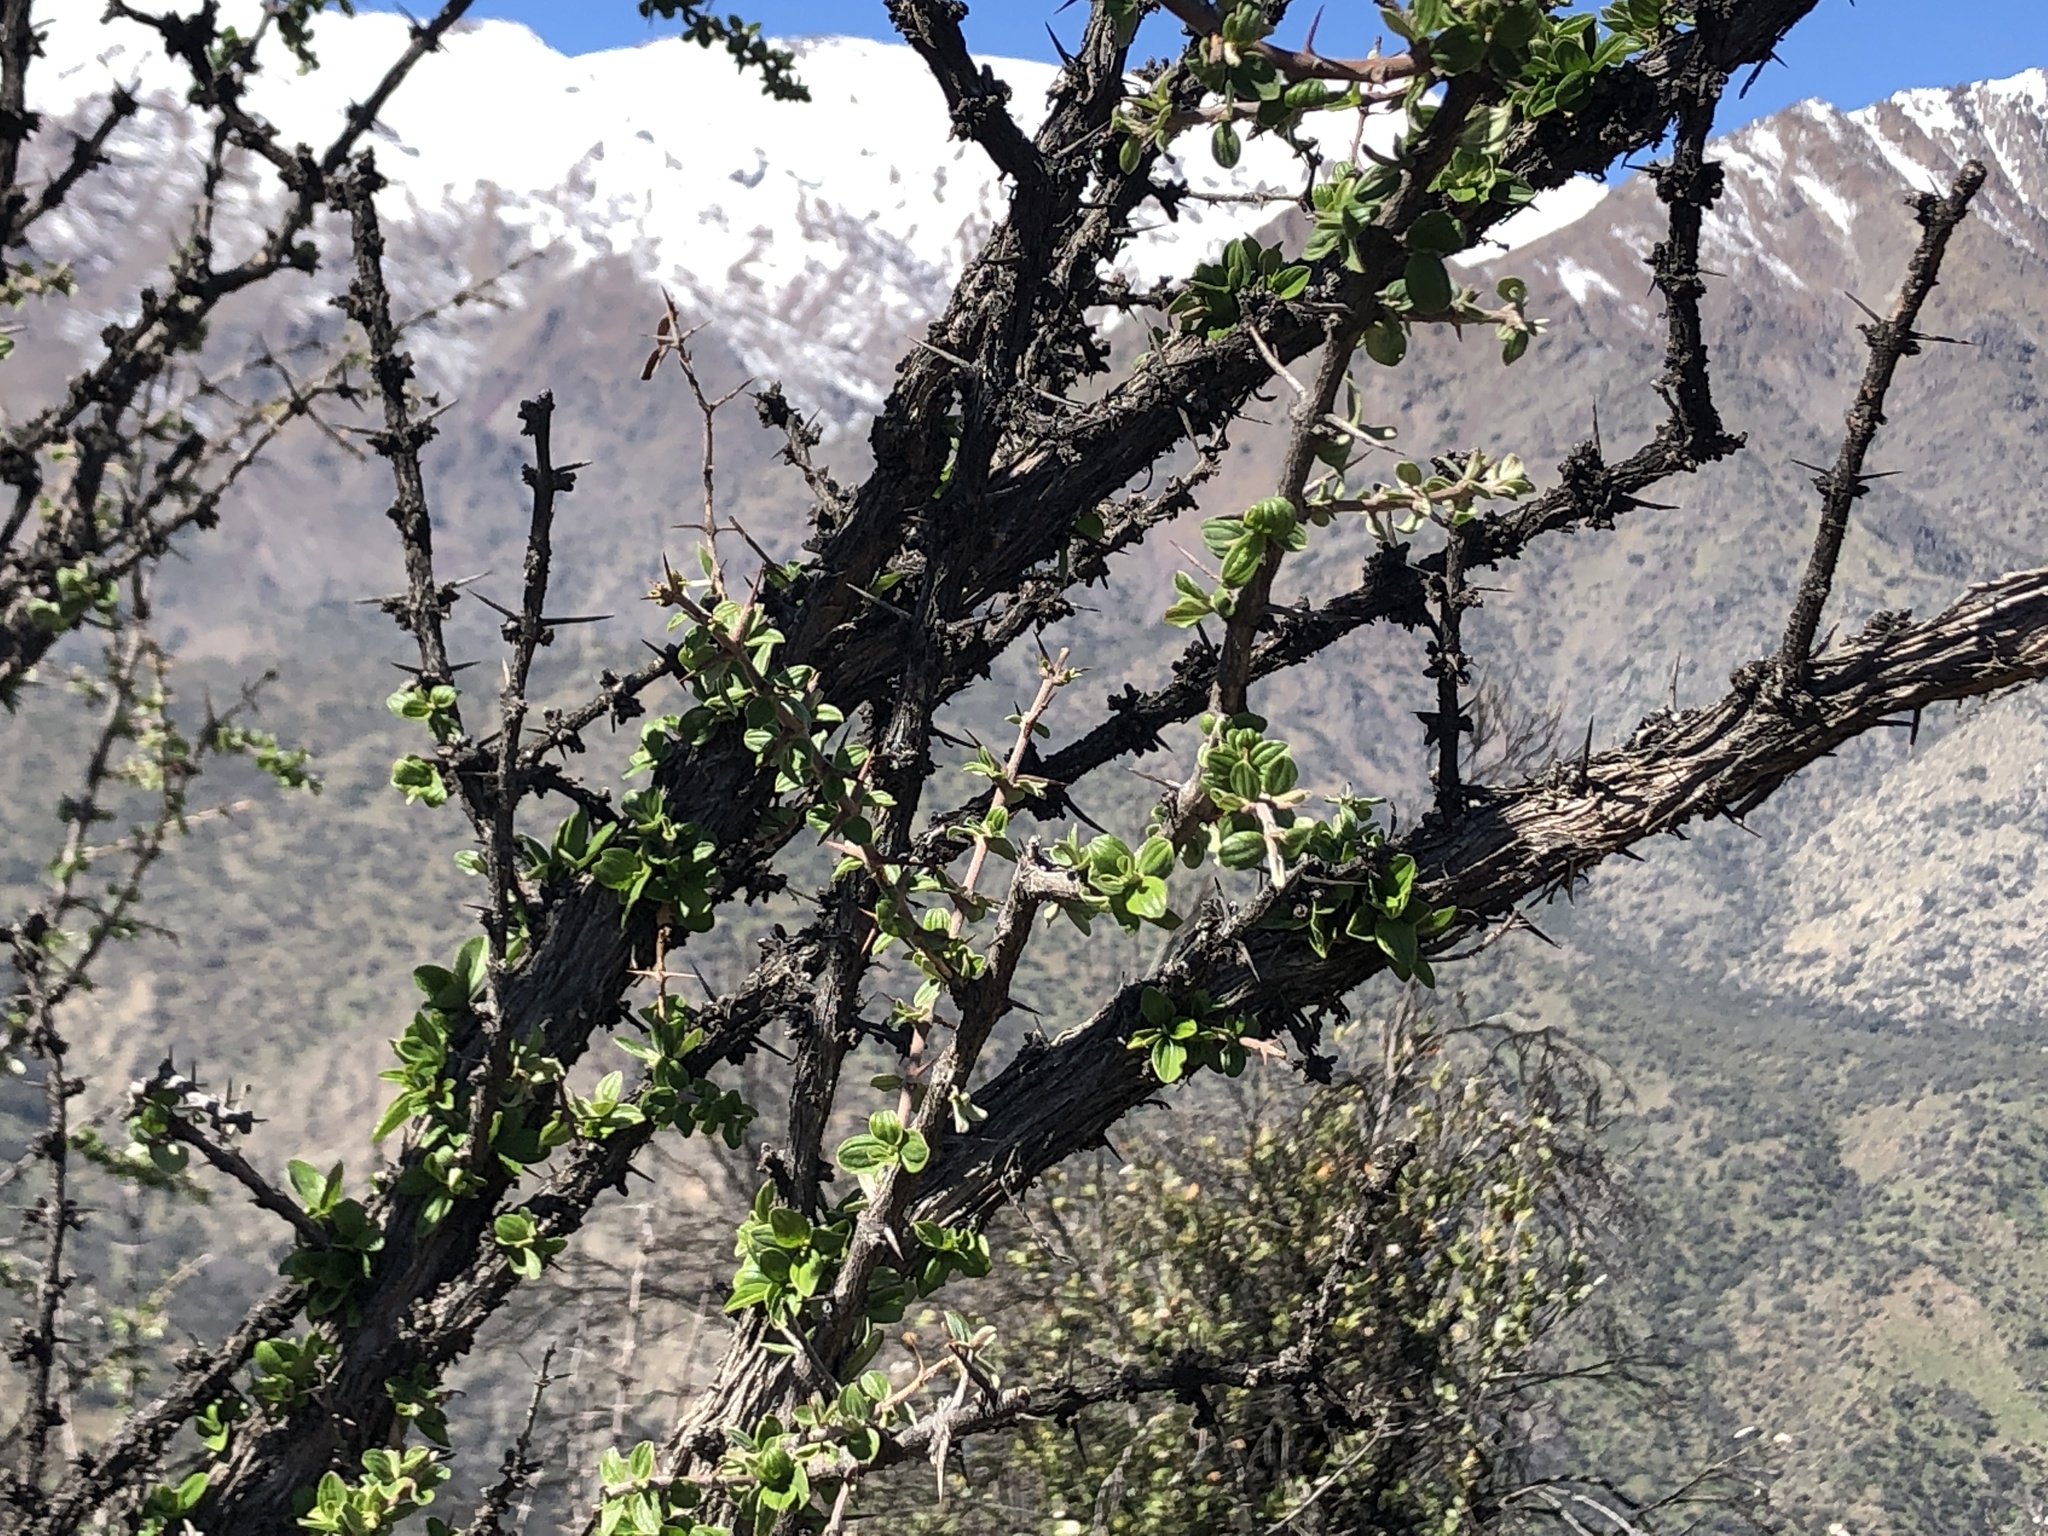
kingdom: Plantae
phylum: Tracheophyta
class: Magnoliopsida
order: Rosales
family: Rhamnaceae
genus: Trevoa
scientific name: Trevoa quinquenervia
